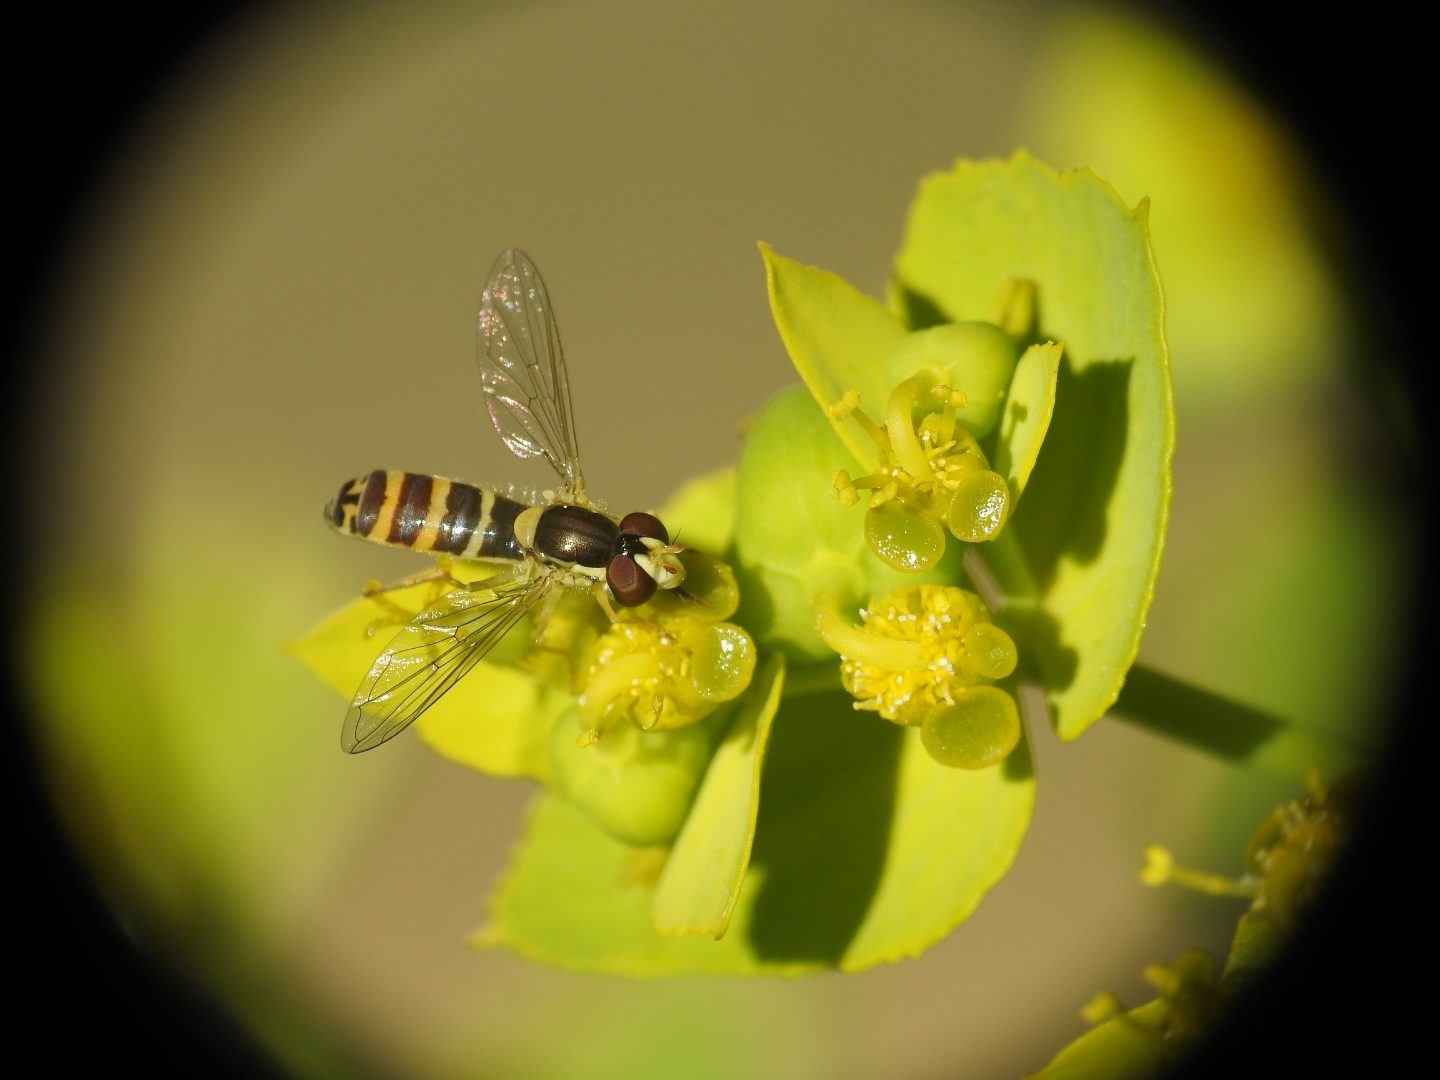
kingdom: Animalia
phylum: Arthropoda
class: Insecta
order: Diptera
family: Syrphidae
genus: Sphaerophoria
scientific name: Sphaerophoria
